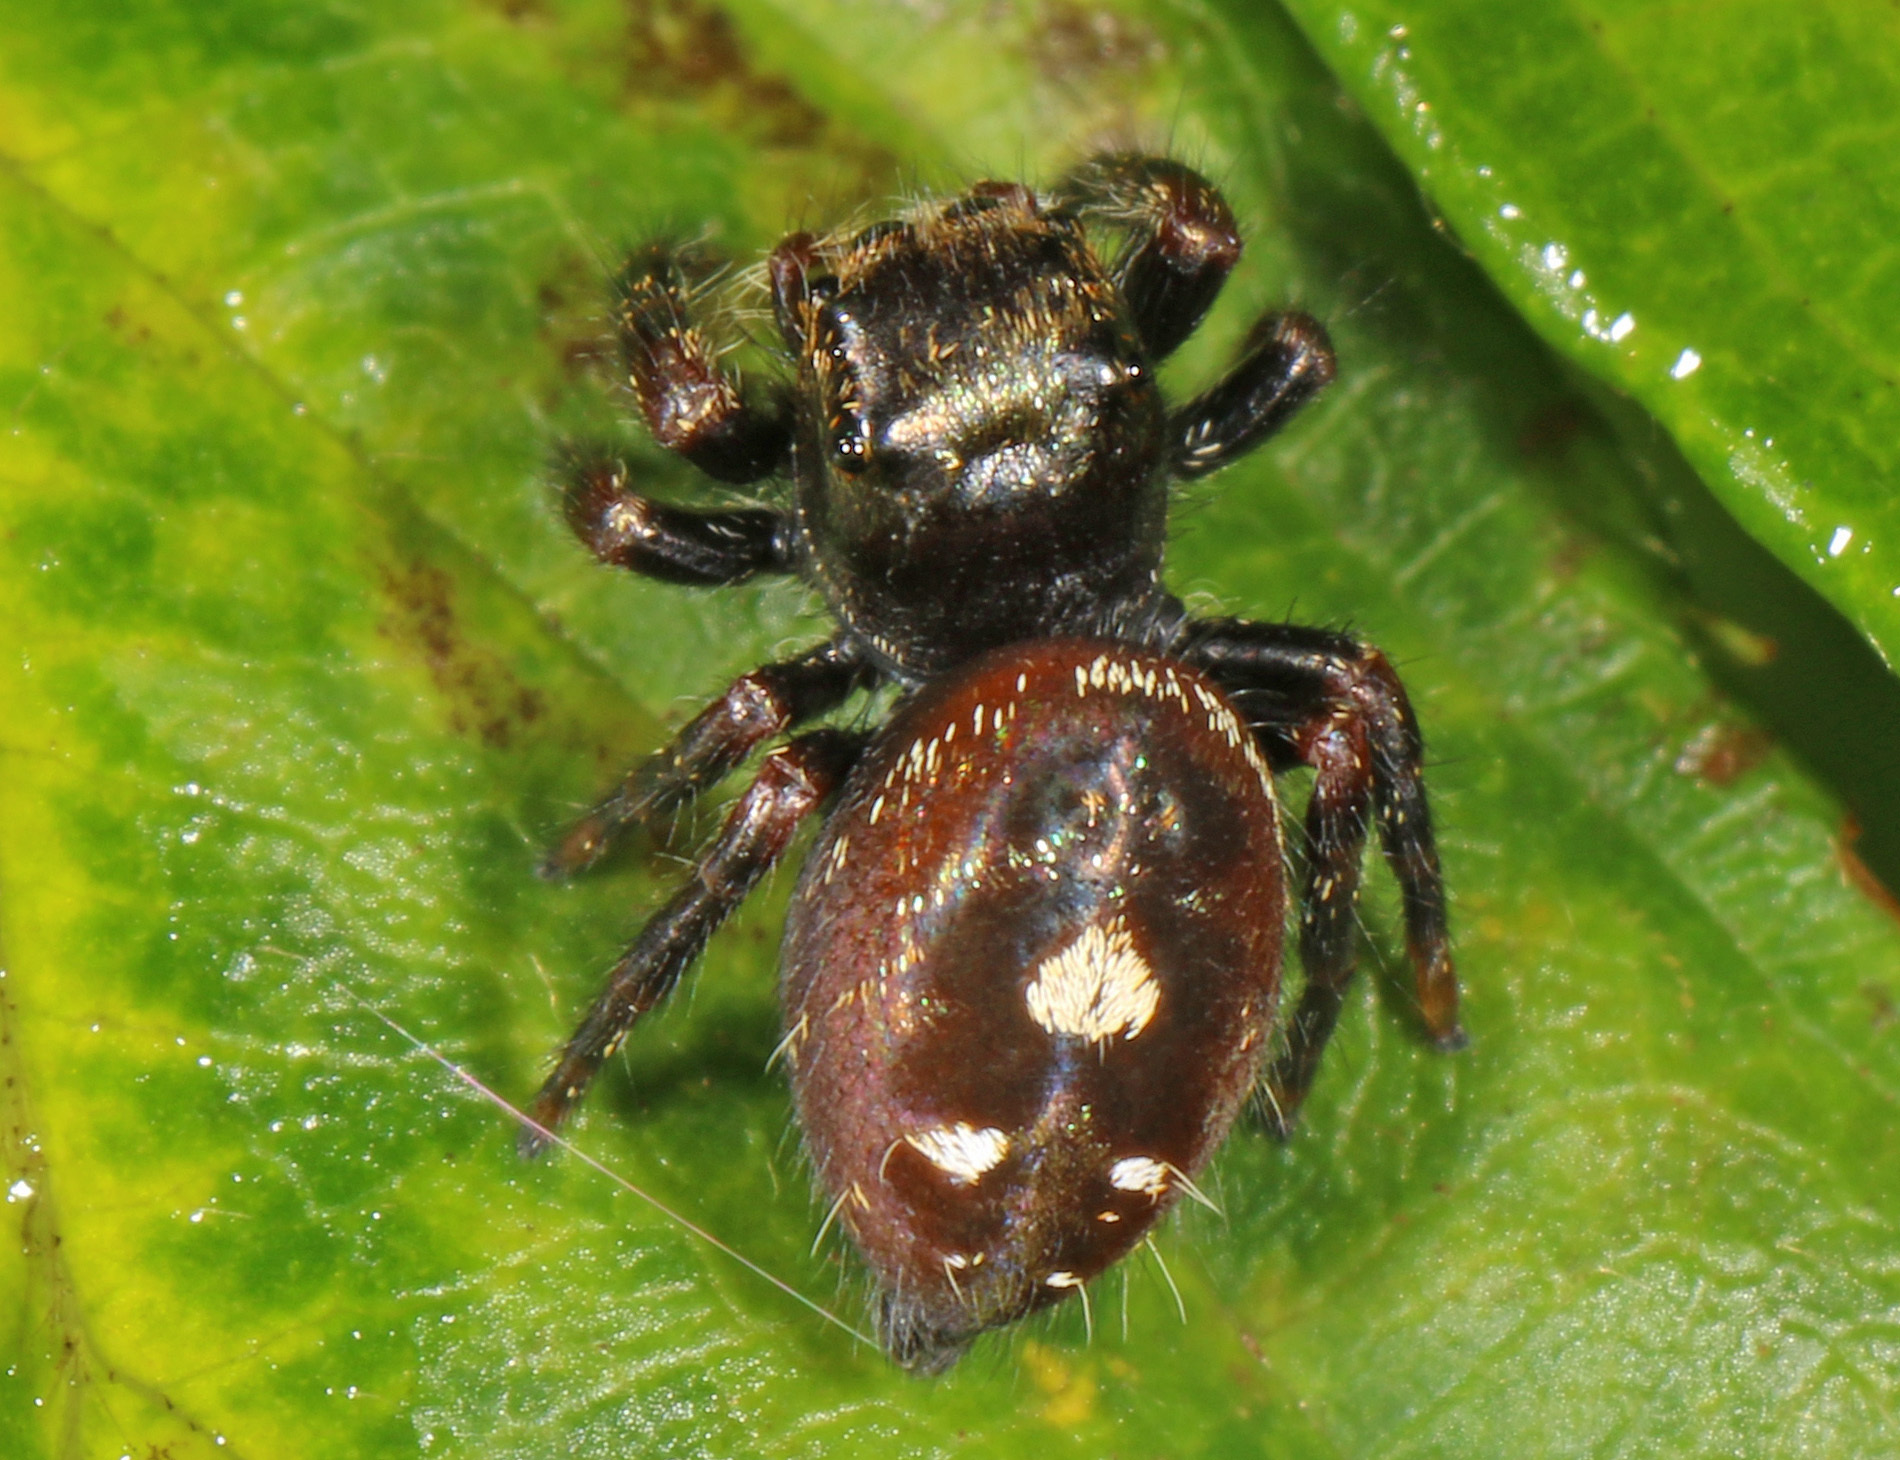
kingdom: Animalia
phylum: Arthropoda
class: Arachnida
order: Araneae
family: Salticidae
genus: Phidippus
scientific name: Phidippus audax
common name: Bold jumper
